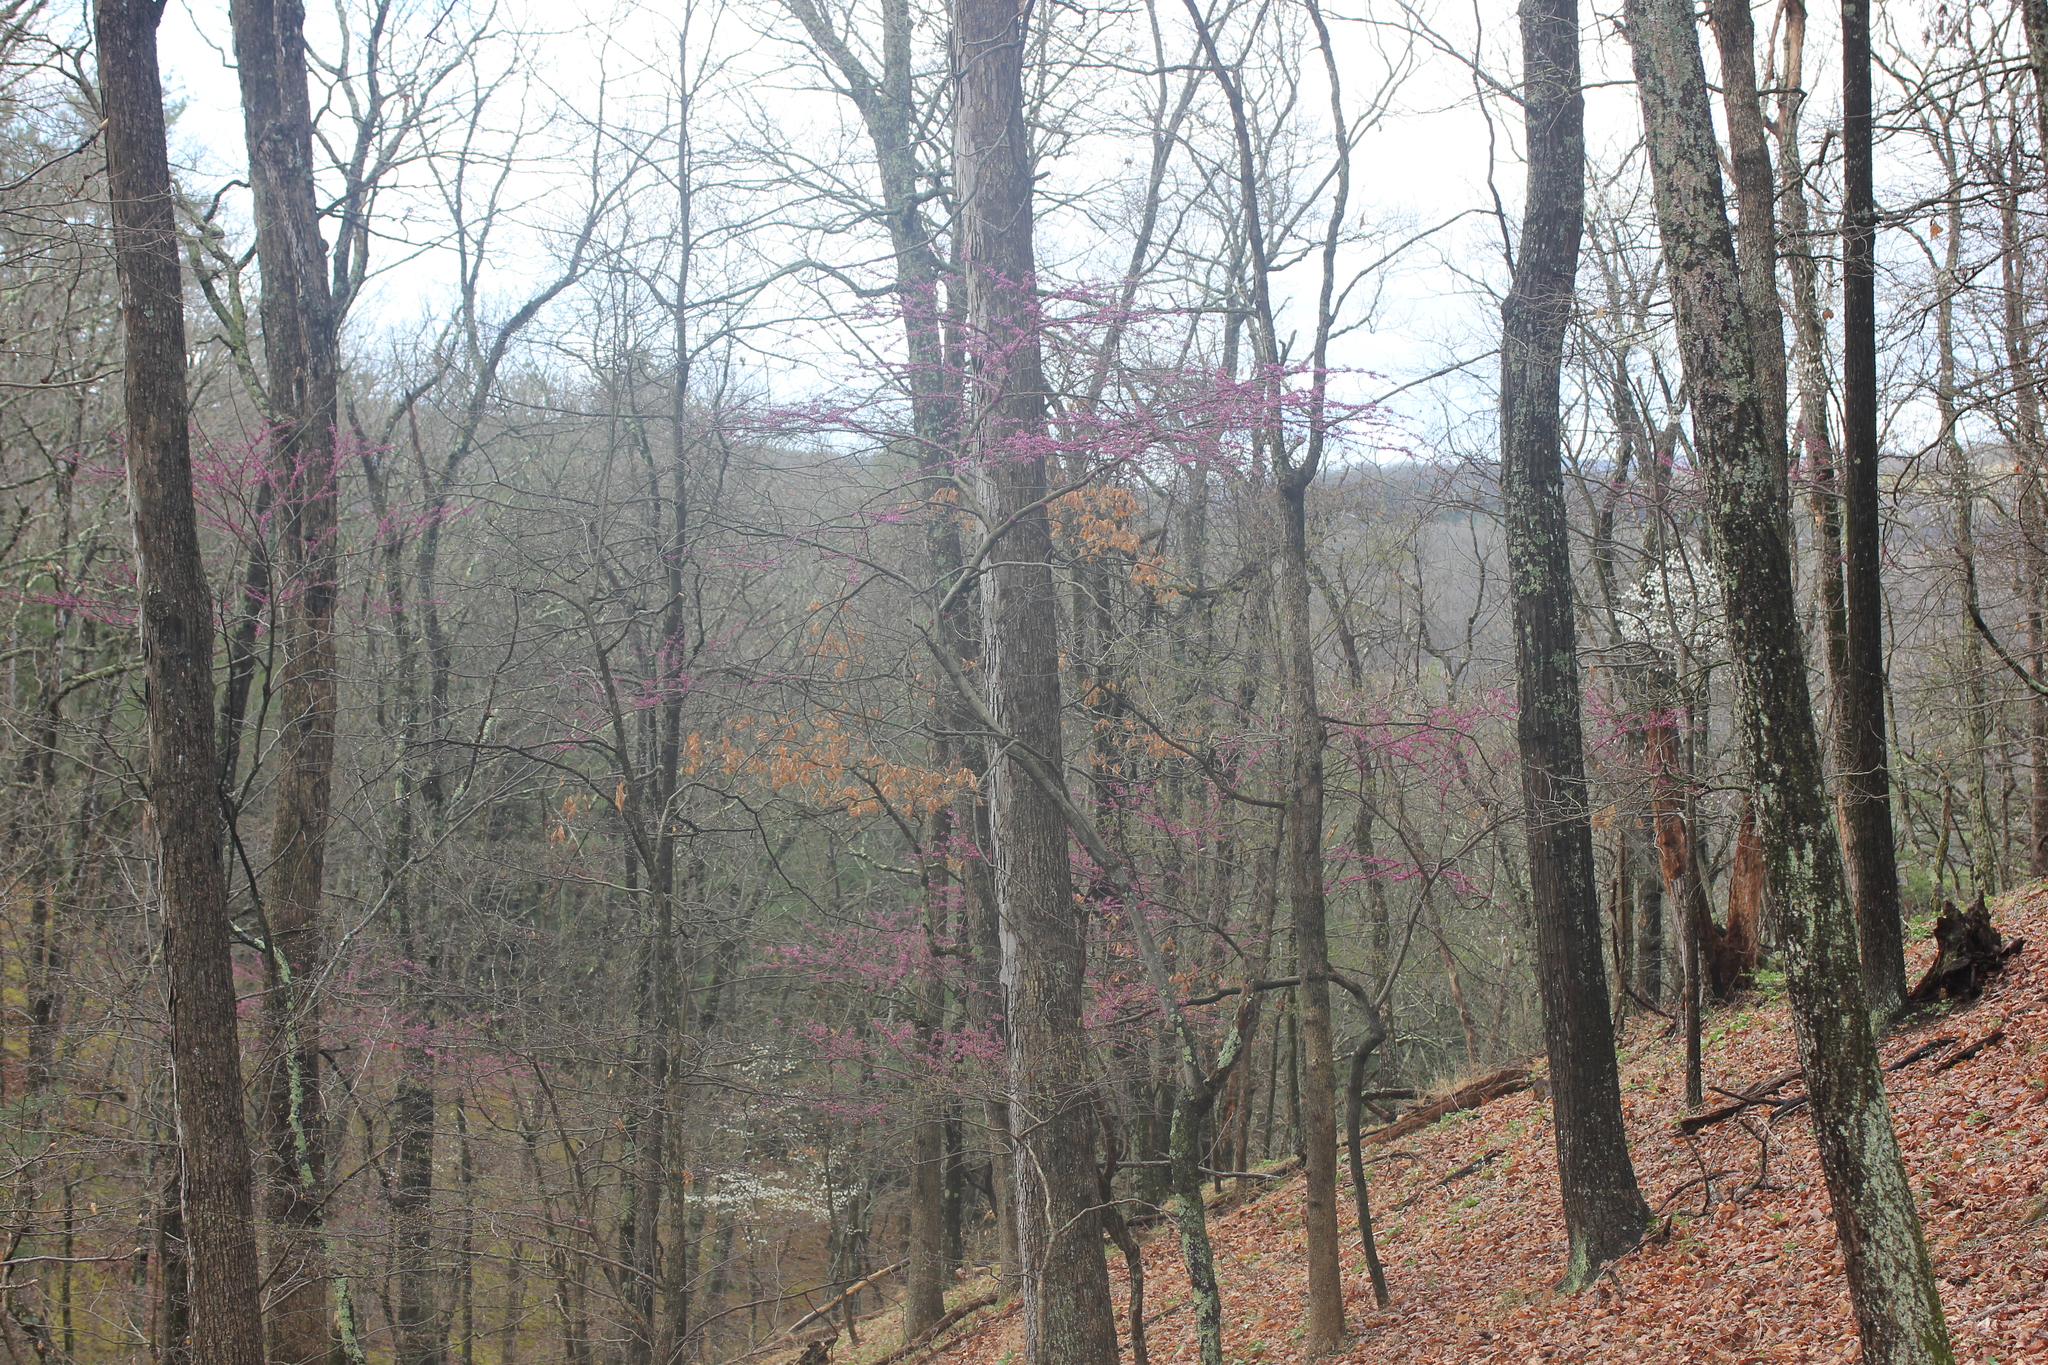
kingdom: Plantae
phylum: Tracheophyta
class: Magnoliopsida
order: Fabales
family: Fabaceae
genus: Cercis
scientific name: Cercis canadensis
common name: Eastern redbud
